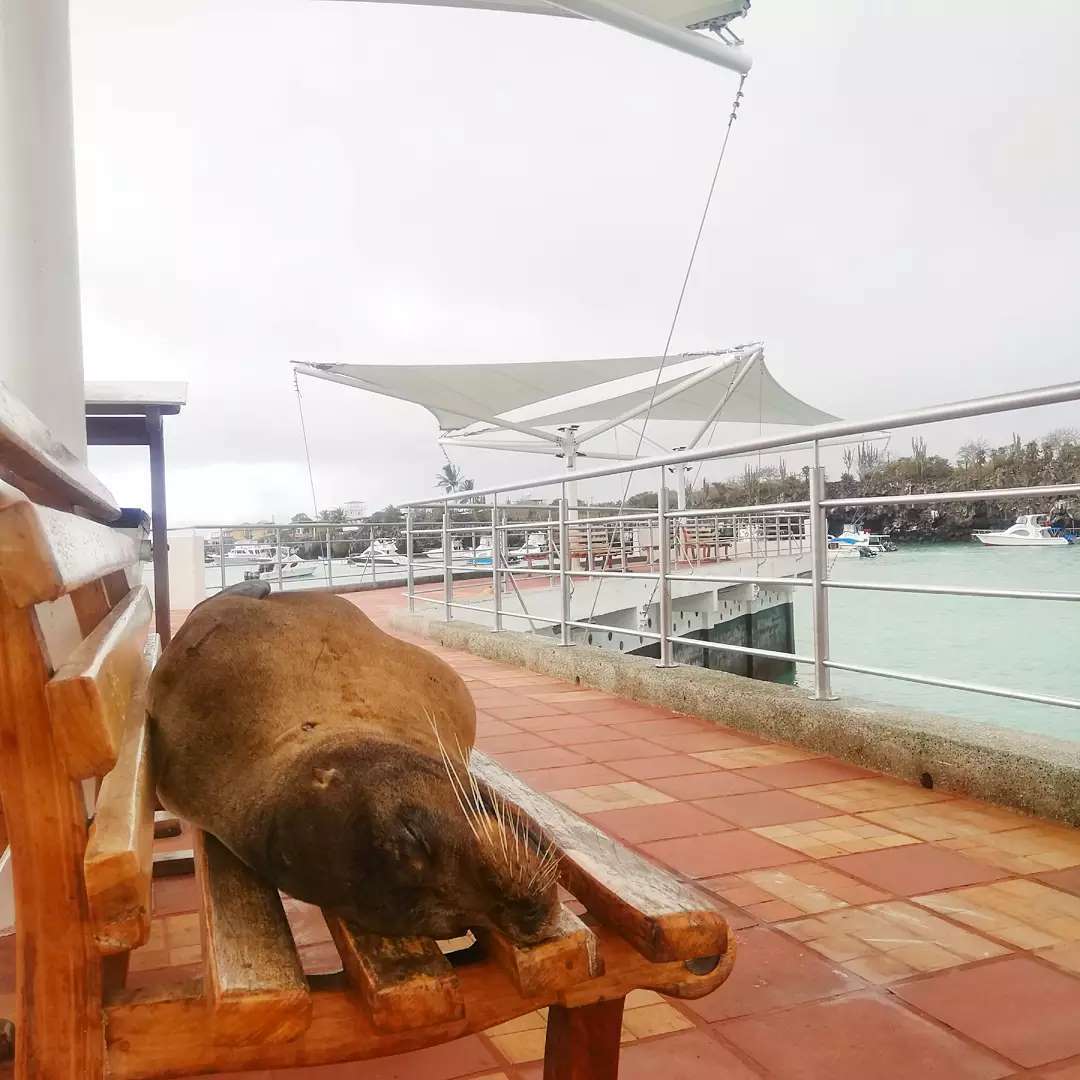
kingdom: Animalia
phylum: Chordata
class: Mammalia
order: Carnivora
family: Otariidae
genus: Zalophus
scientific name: Zalophus wollebaeki
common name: Galapagos sea lion
